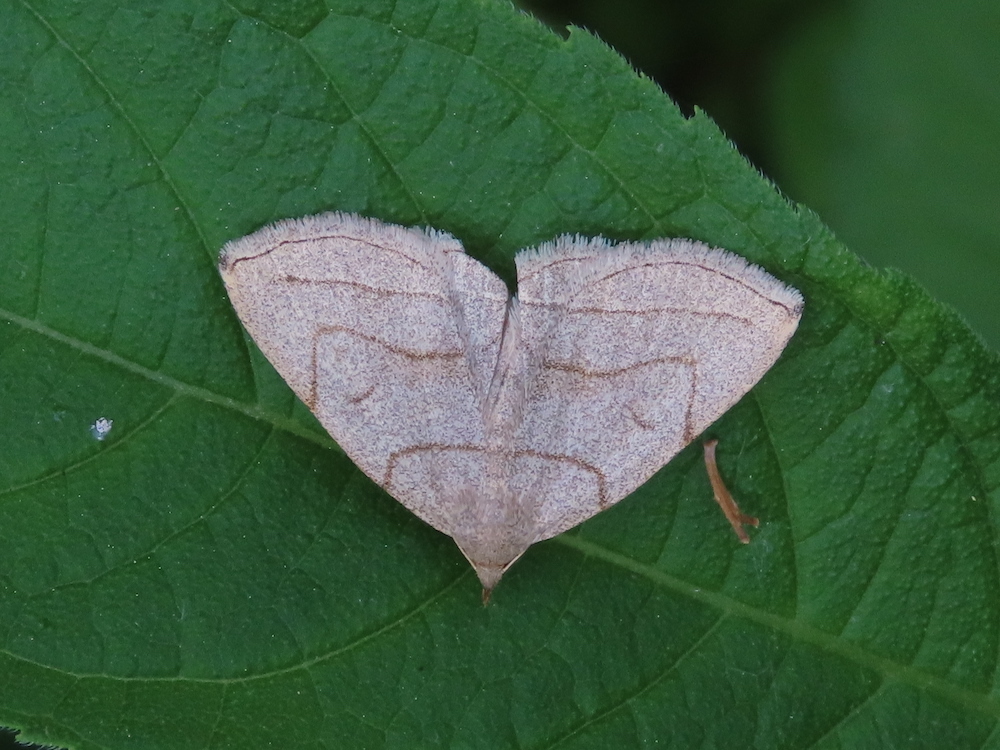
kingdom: Animalia
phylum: Arthropoda
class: Insecta
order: Lepidoptera
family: Erebidae
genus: Zanclognatha
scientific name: Zanclognatha pedipilalis
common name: Grayish fan-foot
